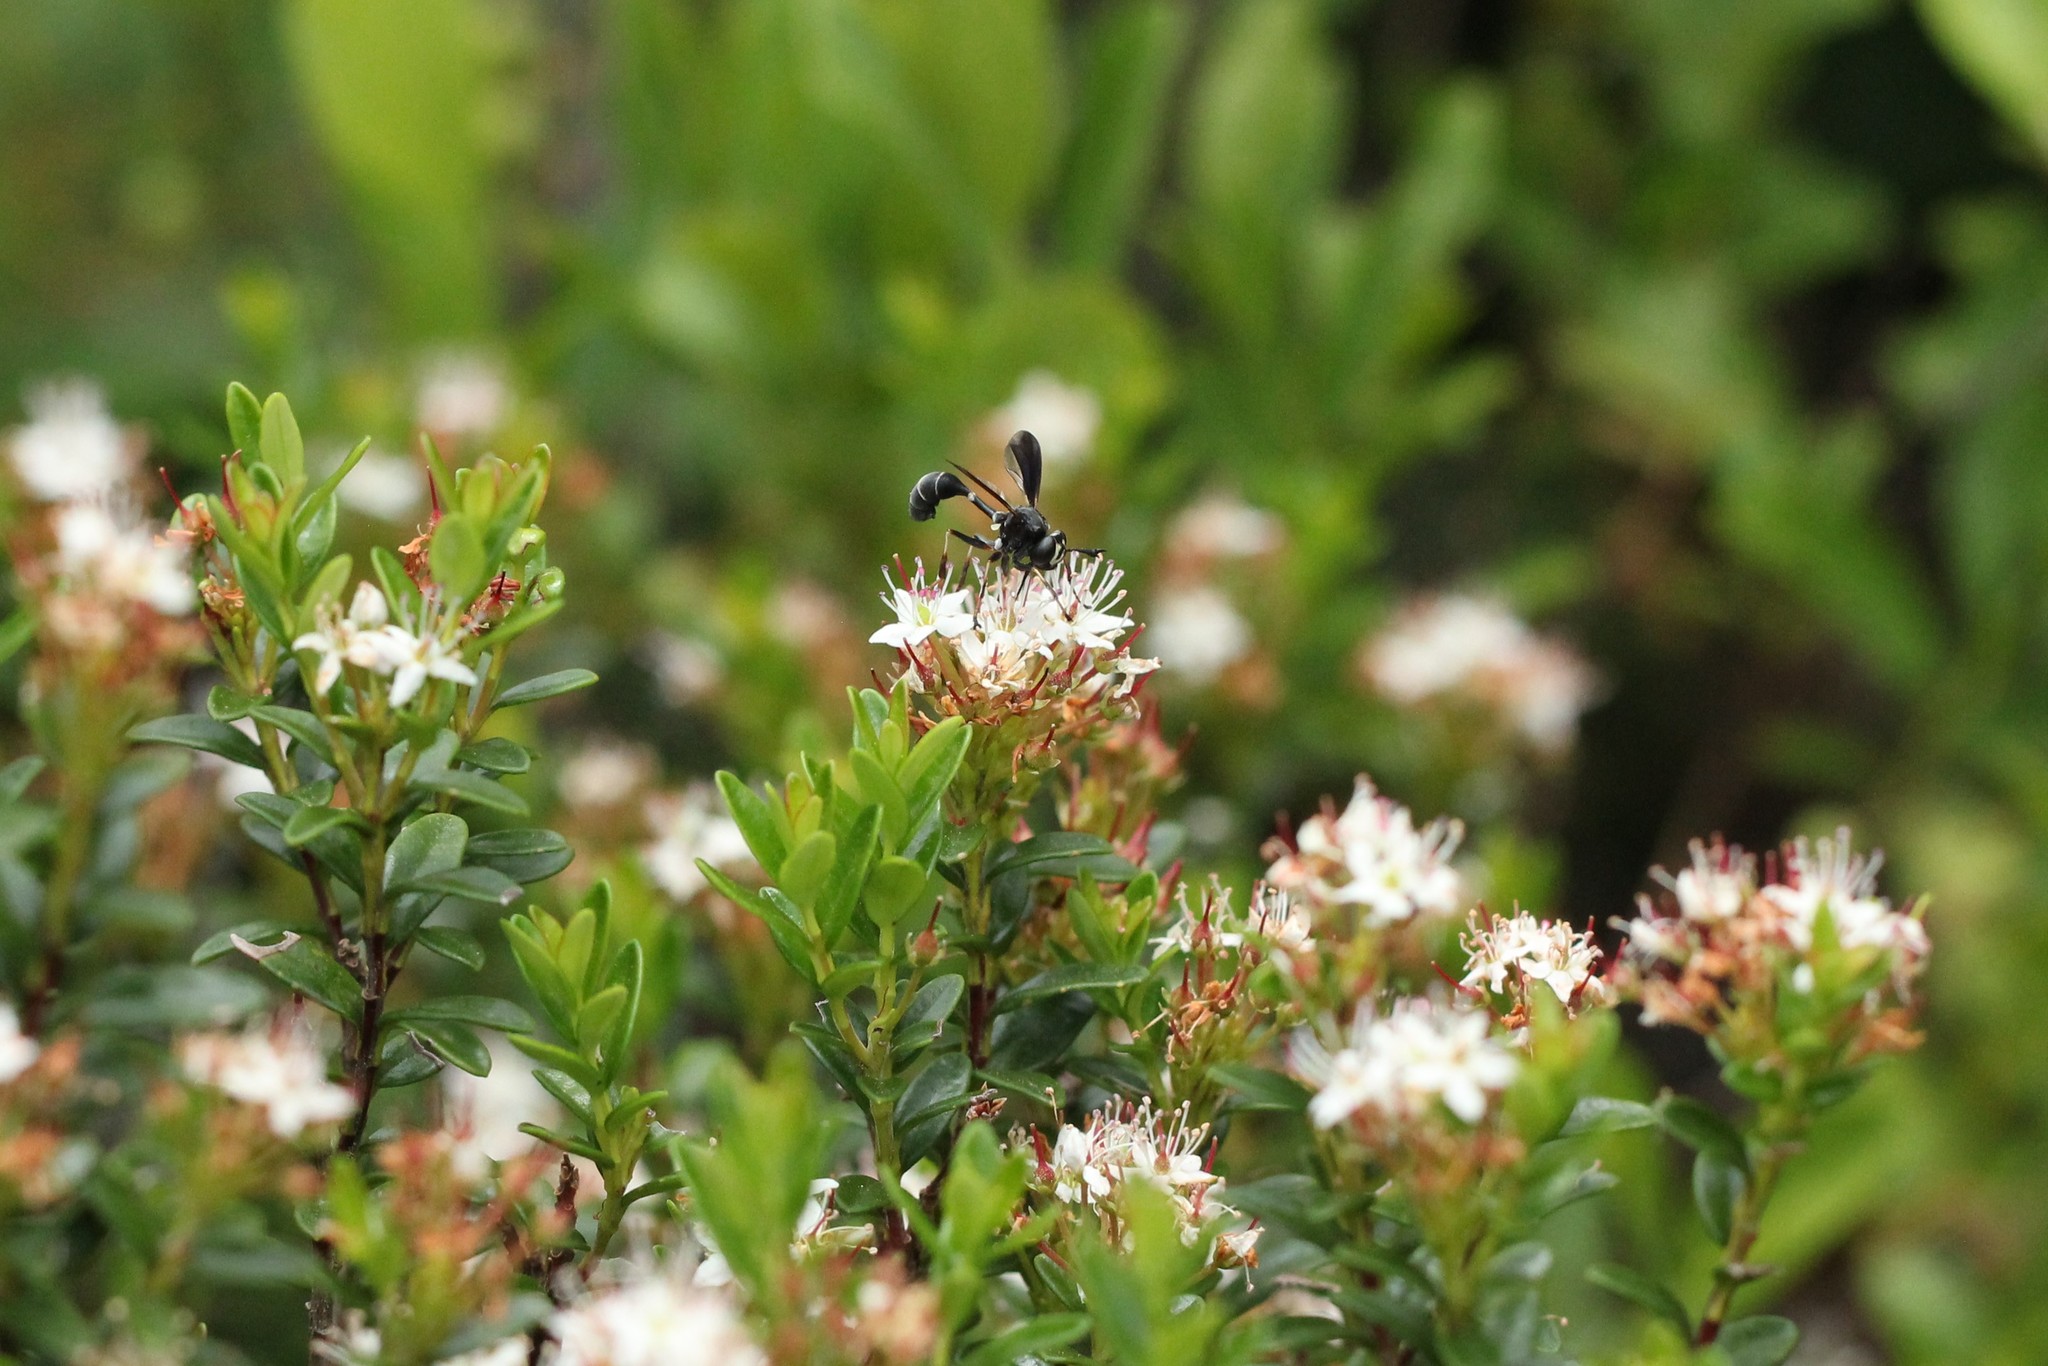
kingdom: Animalia
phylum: Arthropoda
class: Insecta
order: Diptera
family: Conopidae
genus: Physocephala
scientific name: Physocephala tibialis
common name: Common eastern physocephala
